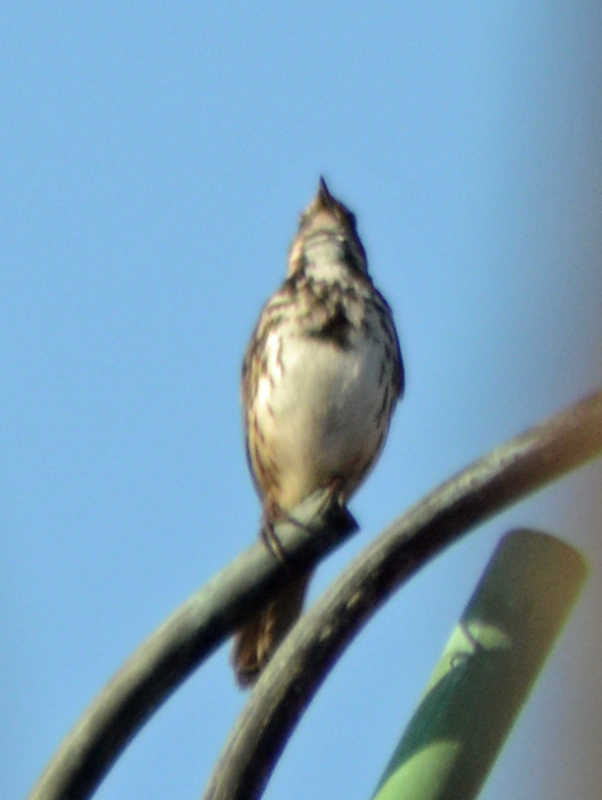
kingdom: Animalia
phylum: Chordata
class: Aves
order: Passeriformes
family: Passerellidae
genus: Melospiza
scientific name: Melospiza melodia
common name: Song sparrow
